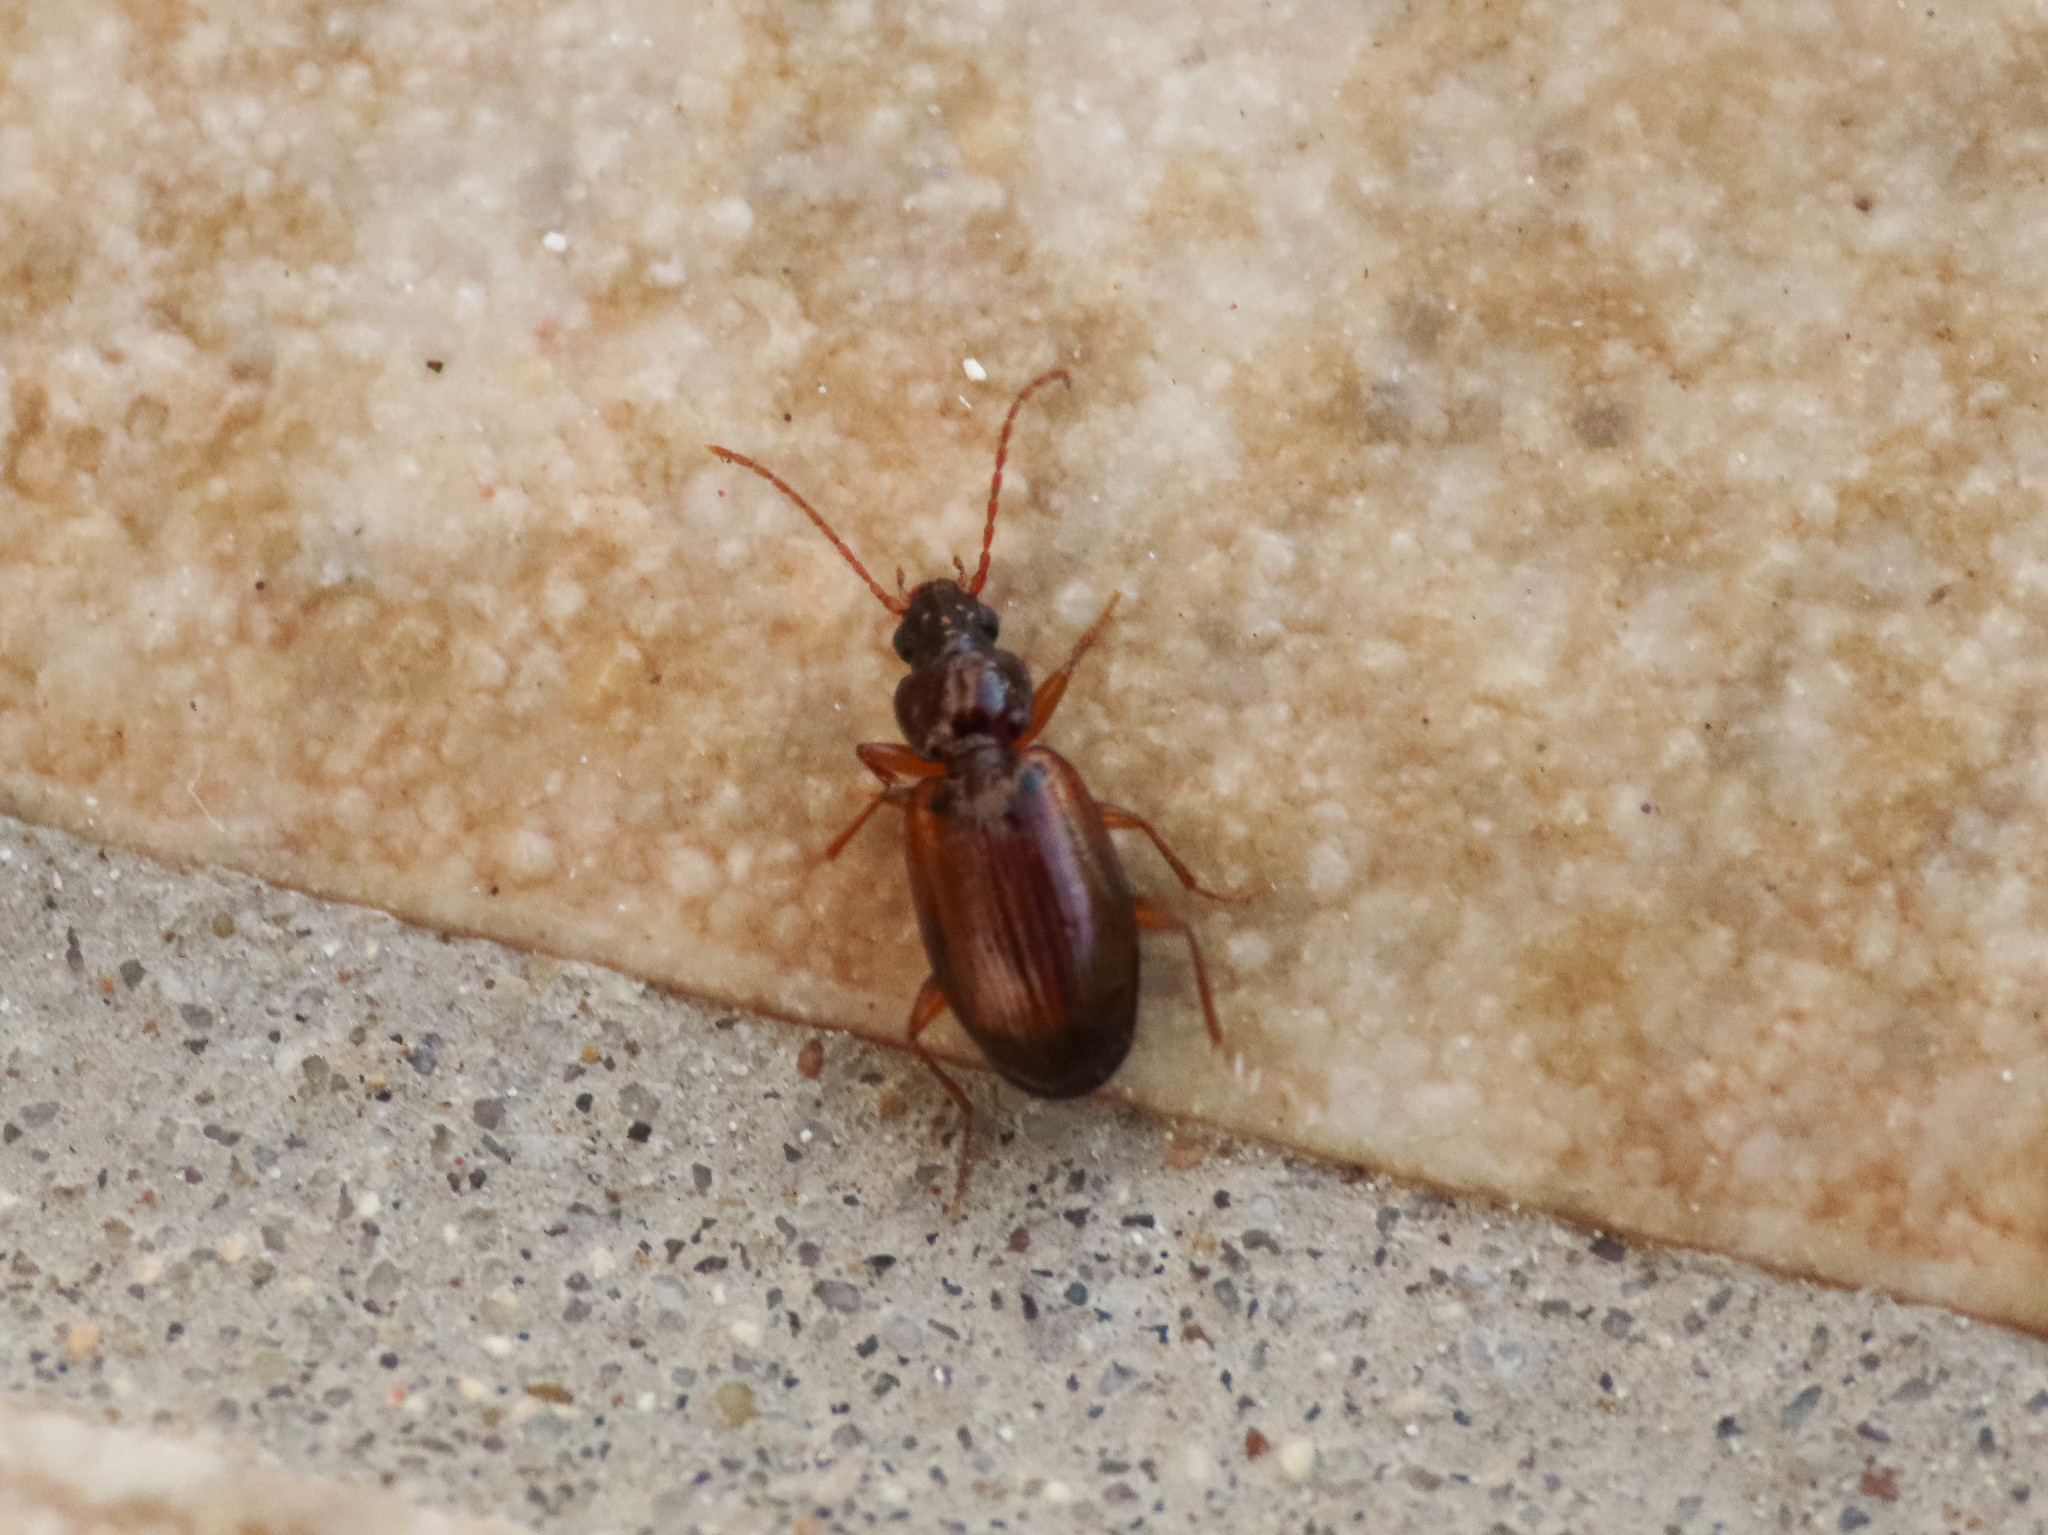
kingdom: Animalia
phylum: Arthropoda
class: Insecta
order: Coleoptera
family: Carabidae
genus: Trechus
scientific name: Trechus quadristriatus
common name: Four-striated riverbank ground beetle
